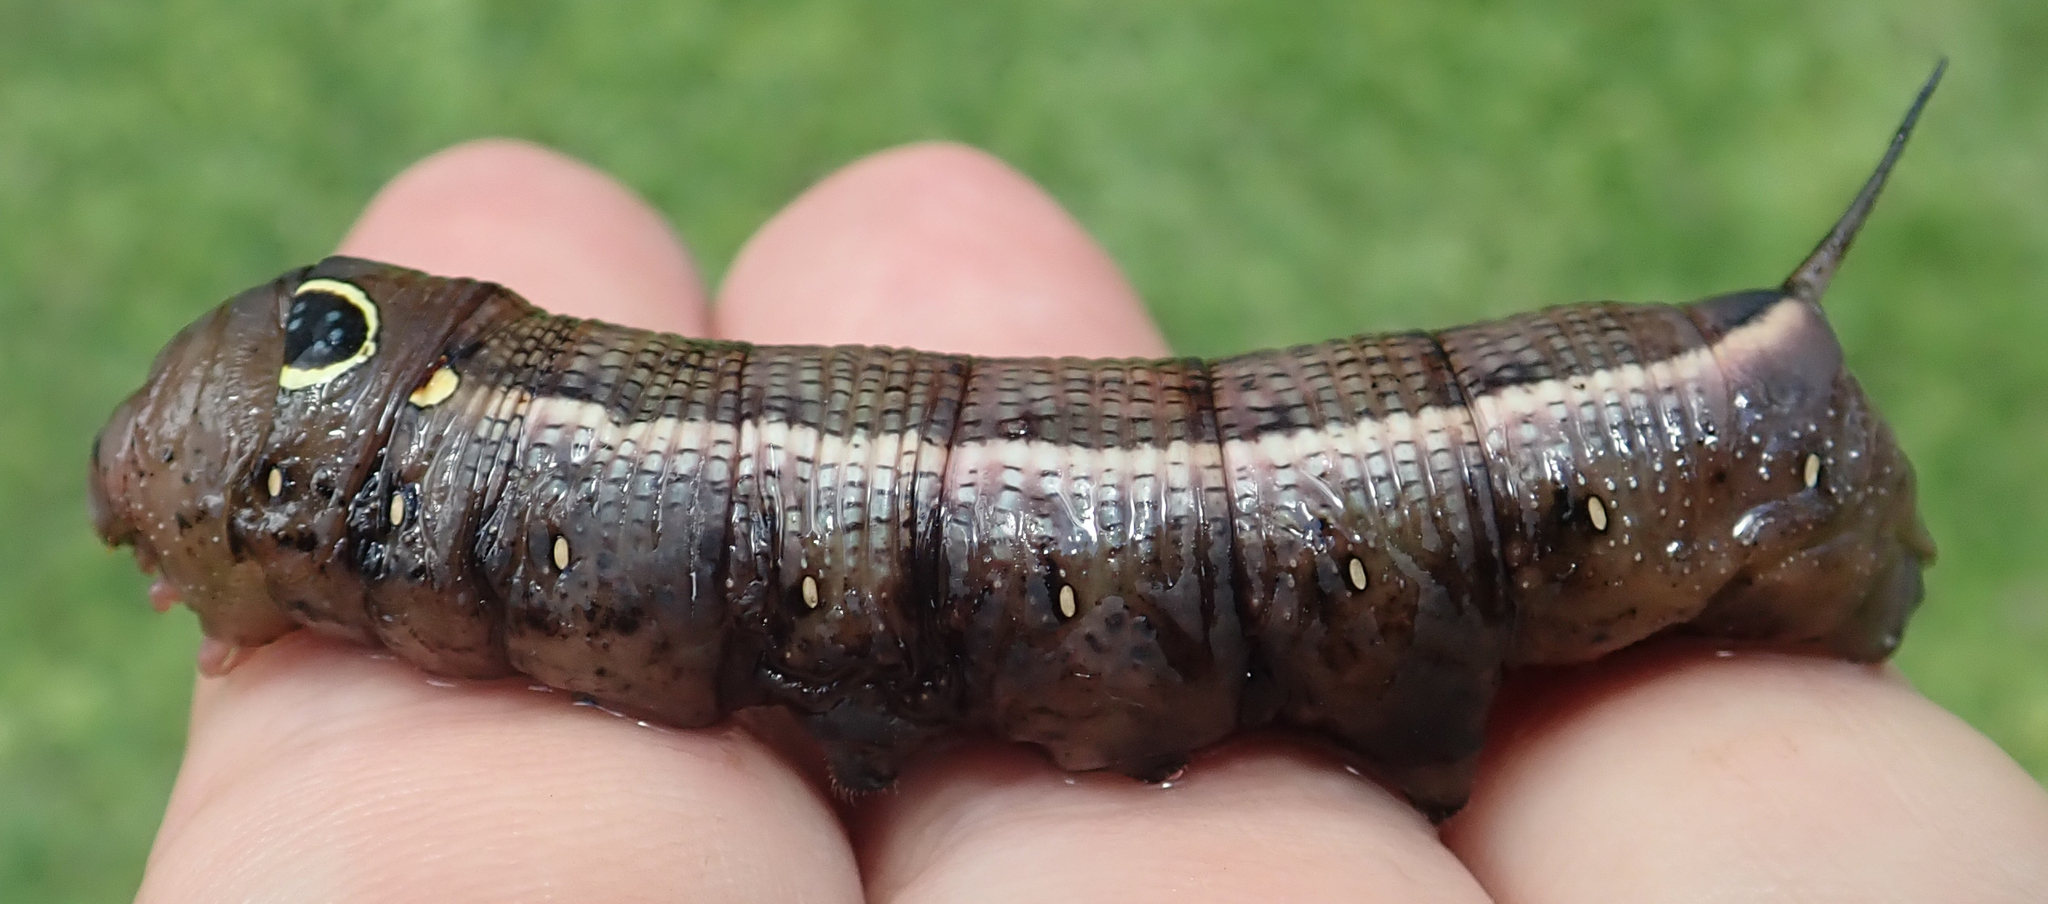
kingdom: Animalia
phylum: Arthropoda
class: Insecta
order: Lepidoptera
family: Sphingidae
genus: Hippotion
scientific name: Hippotion celerio
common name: Silver-striped hawk-moth
